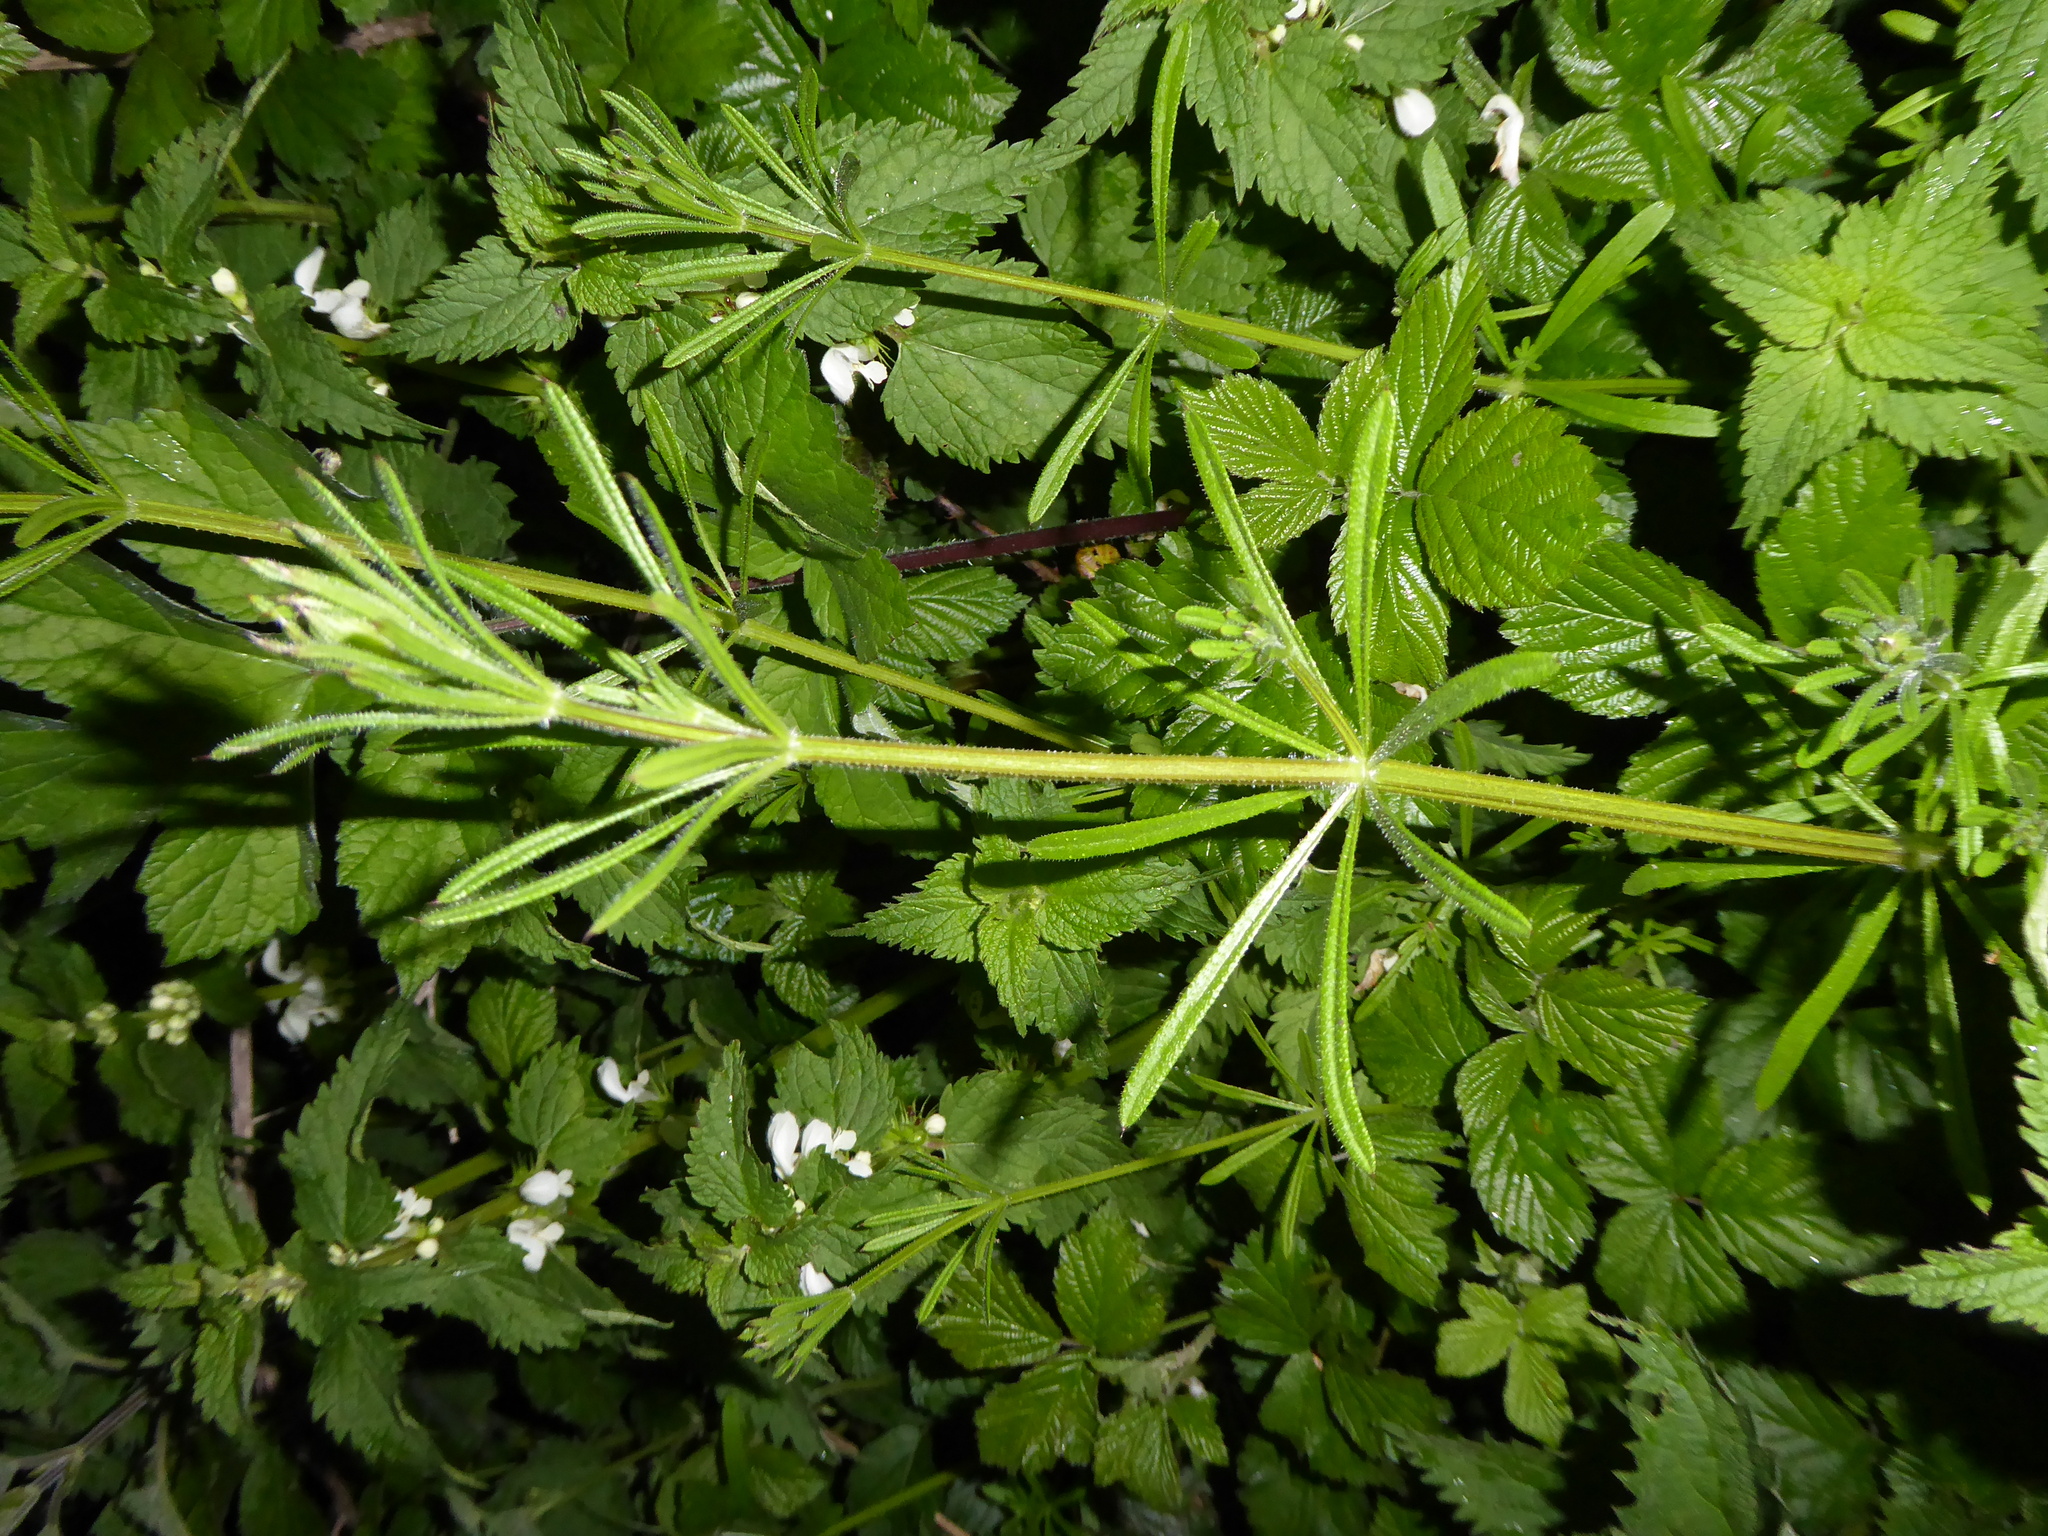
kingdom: Plantae
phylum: Tracheophyta
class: Magnoliopsida
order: Gentianales
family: Rubiaceae
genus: Galium
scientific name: Galium aparine
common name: Cleavers
